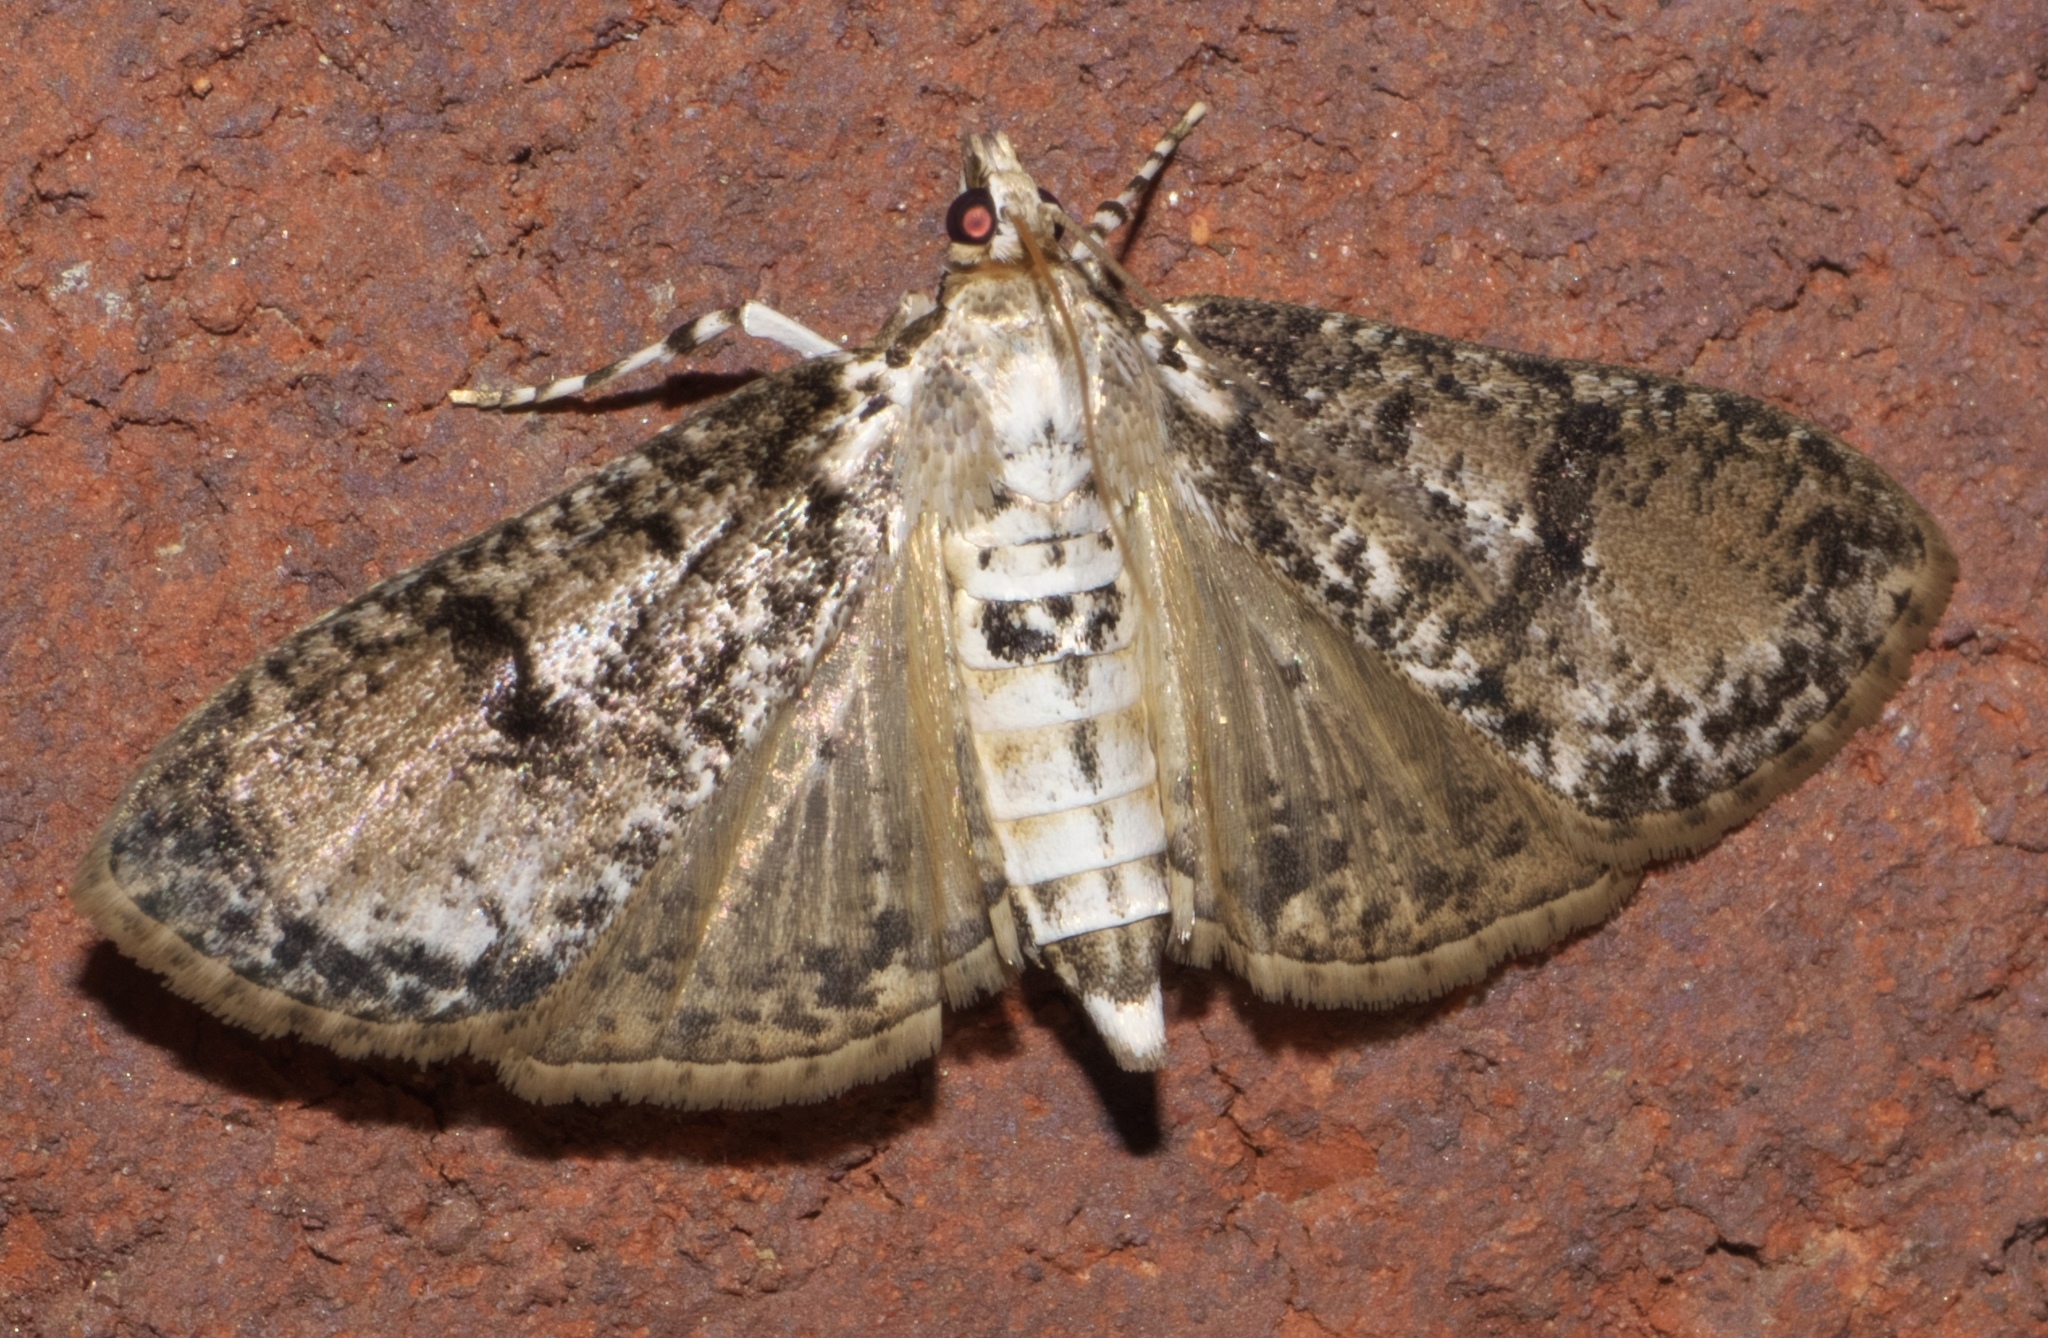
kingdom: Animalia
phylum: Arthropoda
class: Insecta
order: Lepidoptera
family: Crambidae
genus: Palpita
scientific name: Palpita magniferalis
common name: Splendid palpita moth
